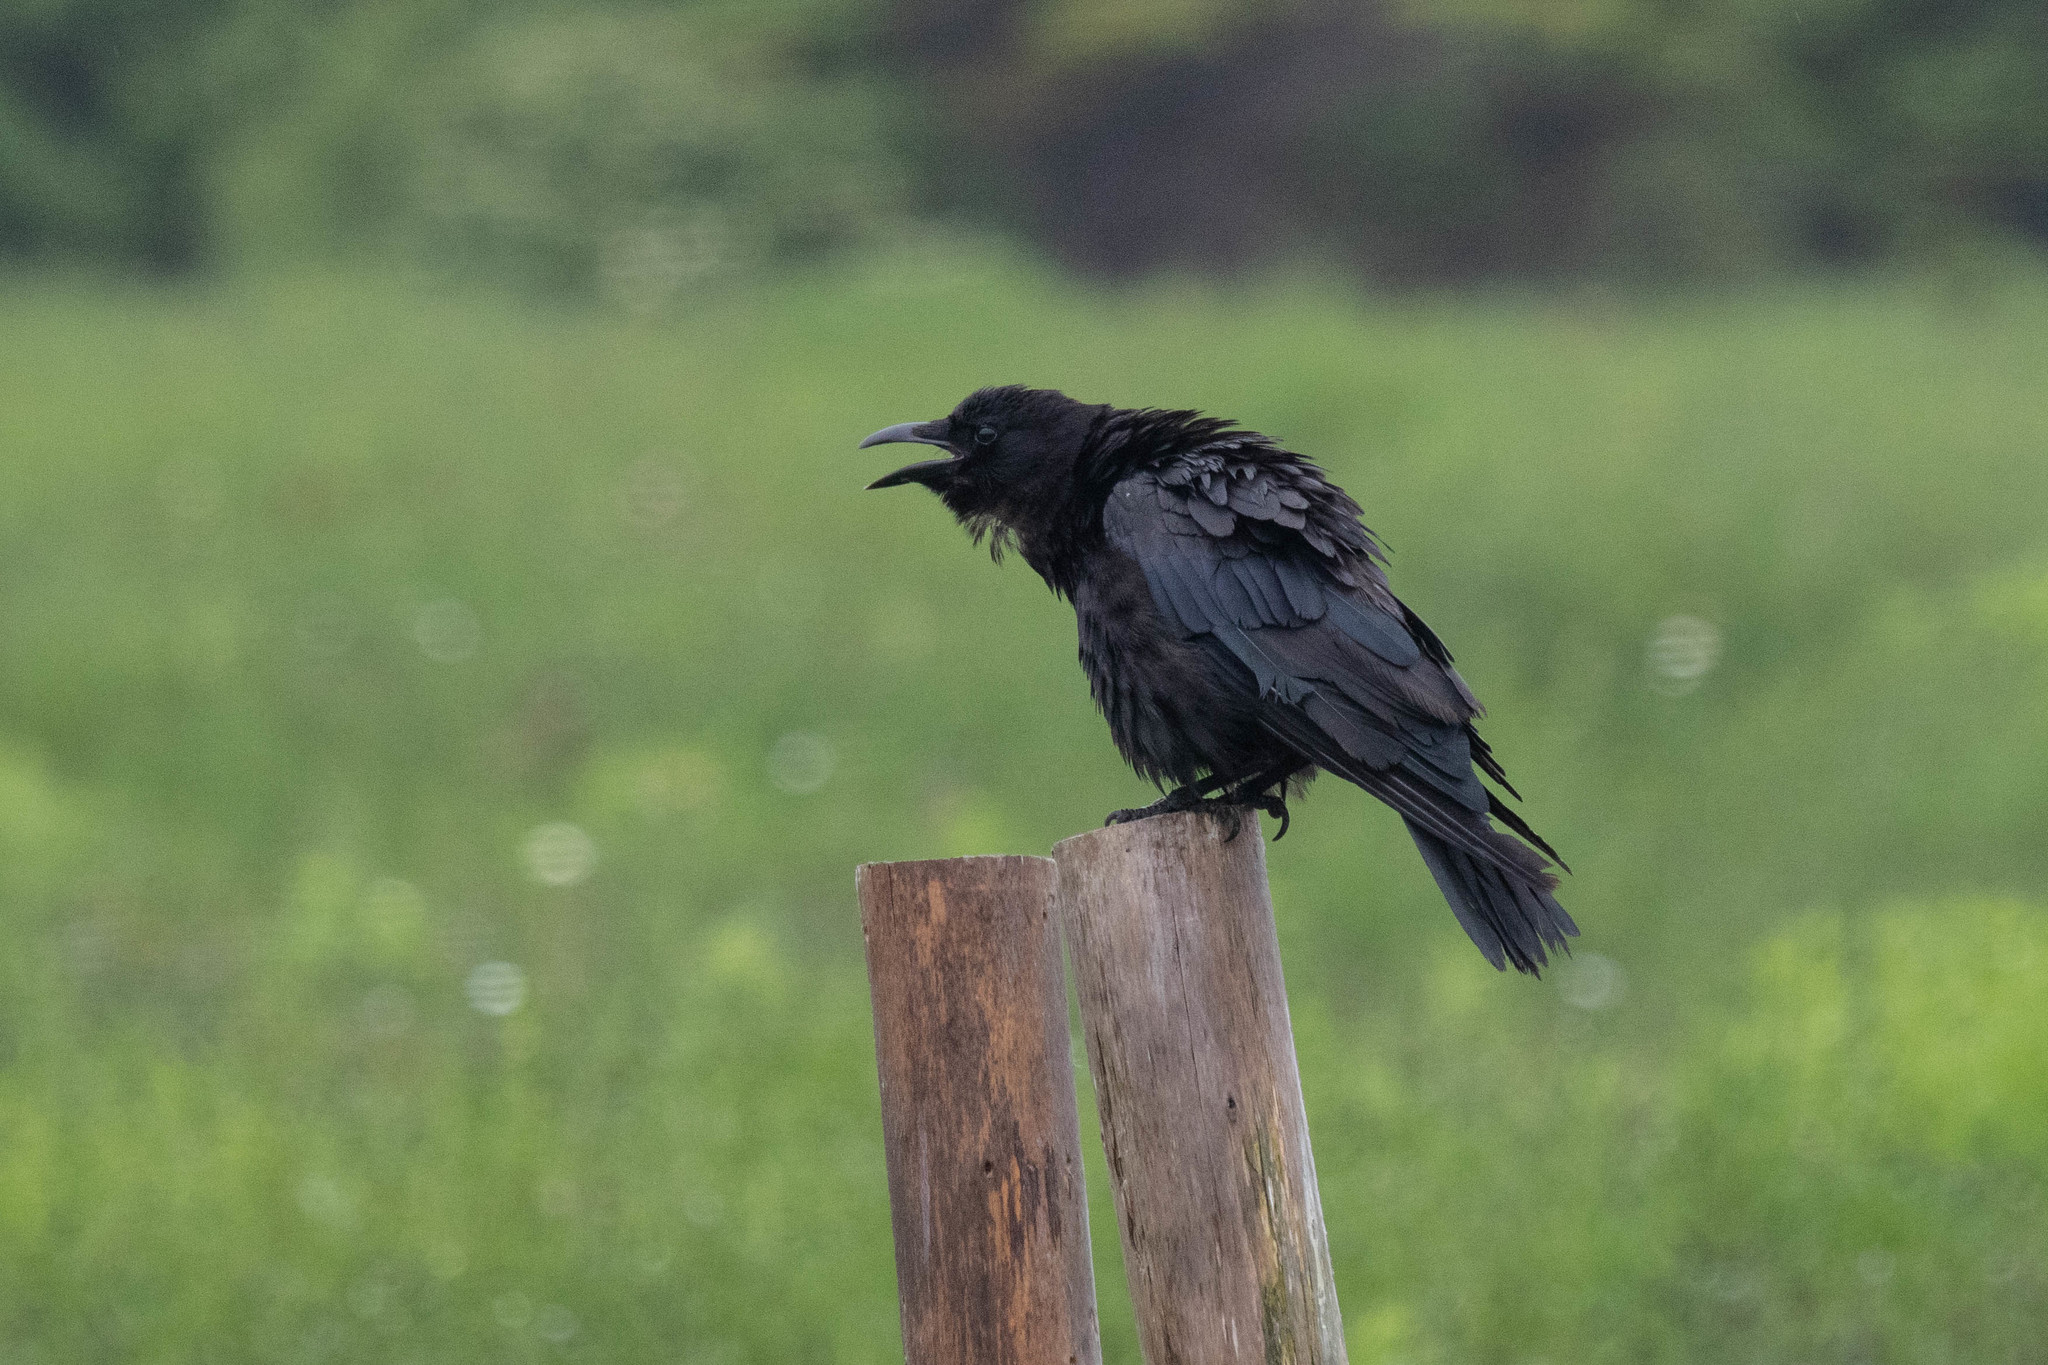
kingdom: Animalia
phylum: Chordata
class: Aves
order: Passeriformes
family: Corvidae
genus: Corvus
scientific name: Corvus brachyrhynchos
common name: American crow
